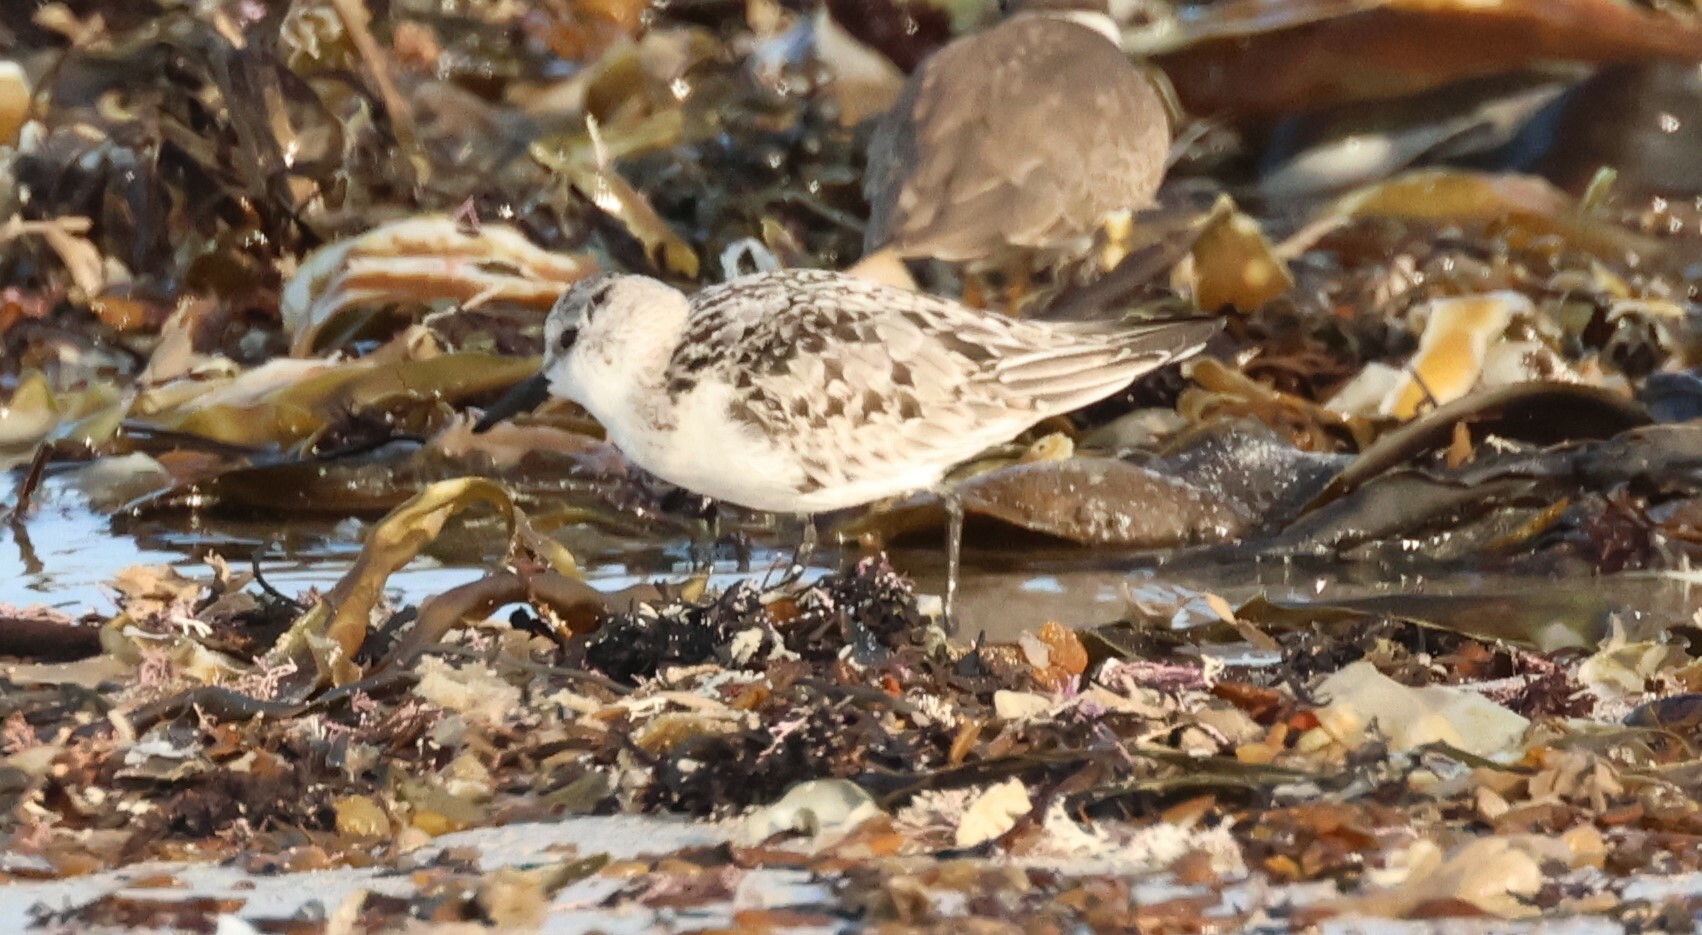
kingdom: Animalia
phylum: Chordata
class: Aves
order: Charadriiformes
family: Scolopacidae
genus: Calidris
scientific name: Calidris alba
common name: Sanderling
